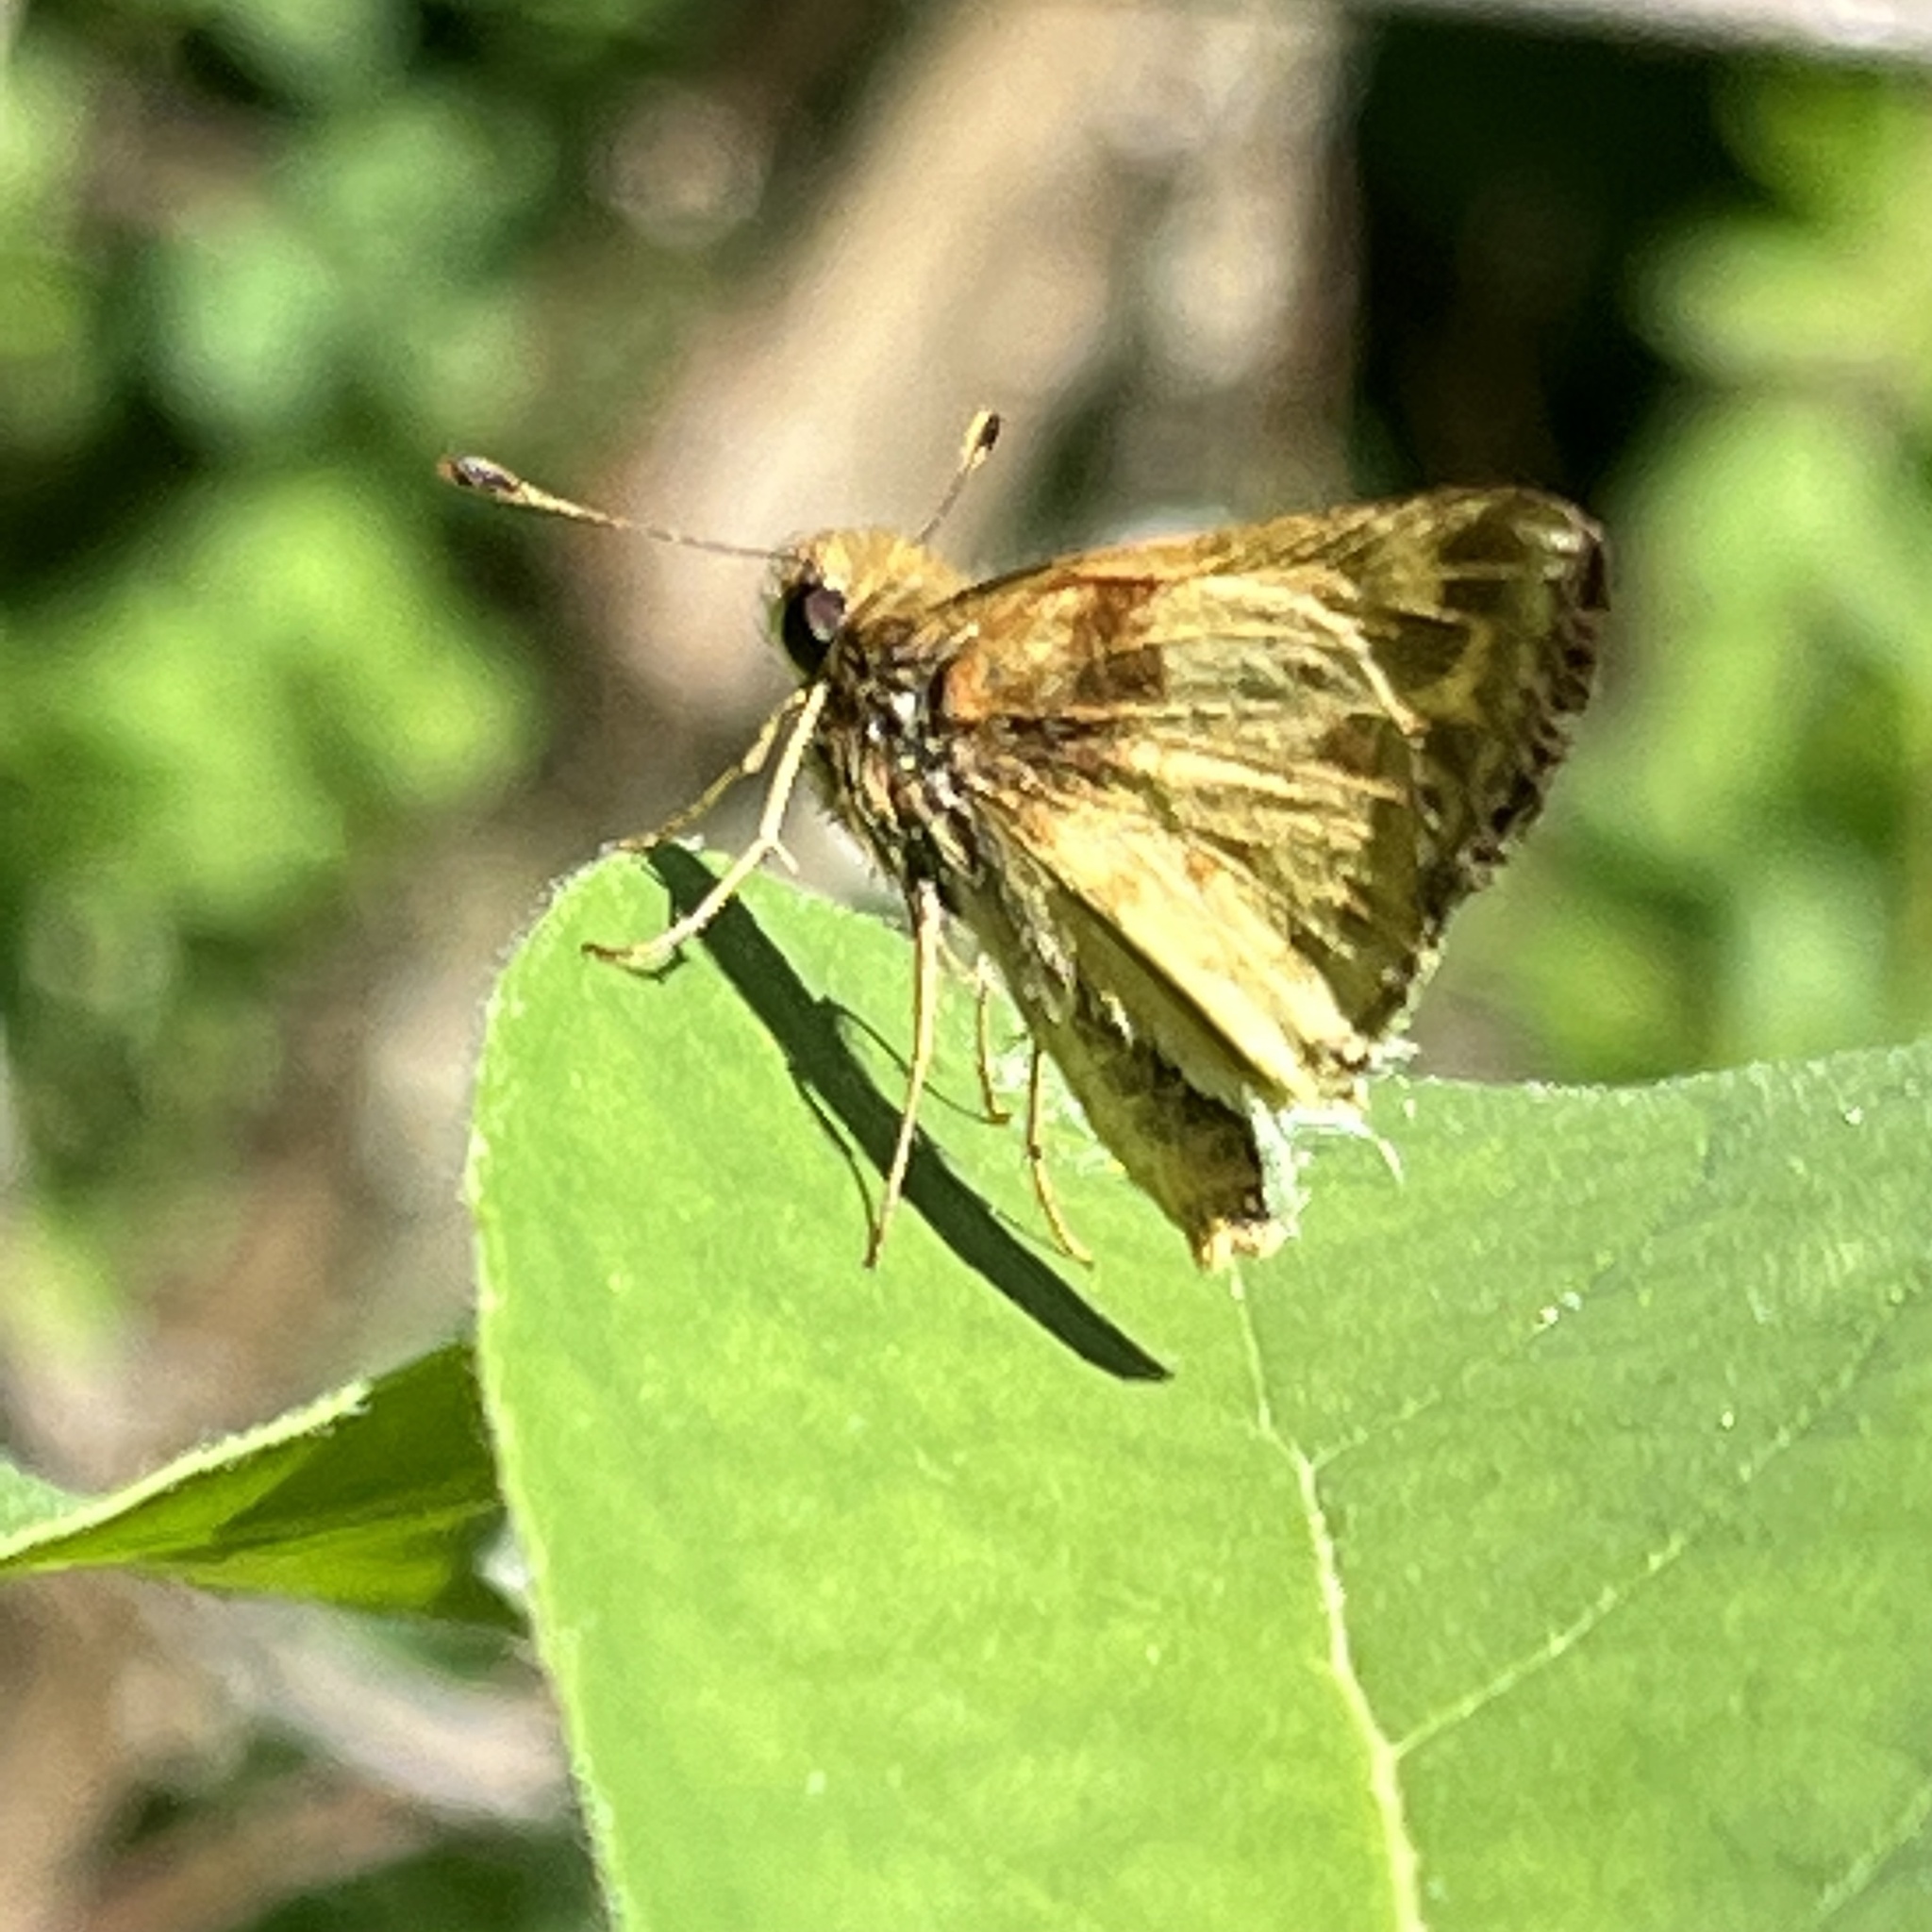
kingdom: Animalia
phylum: Arthropoda
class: Insecta
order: Lepidoptera
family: Hesperiidae
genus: Lon
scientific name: Lon zabulon
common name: Zabulon skipper
